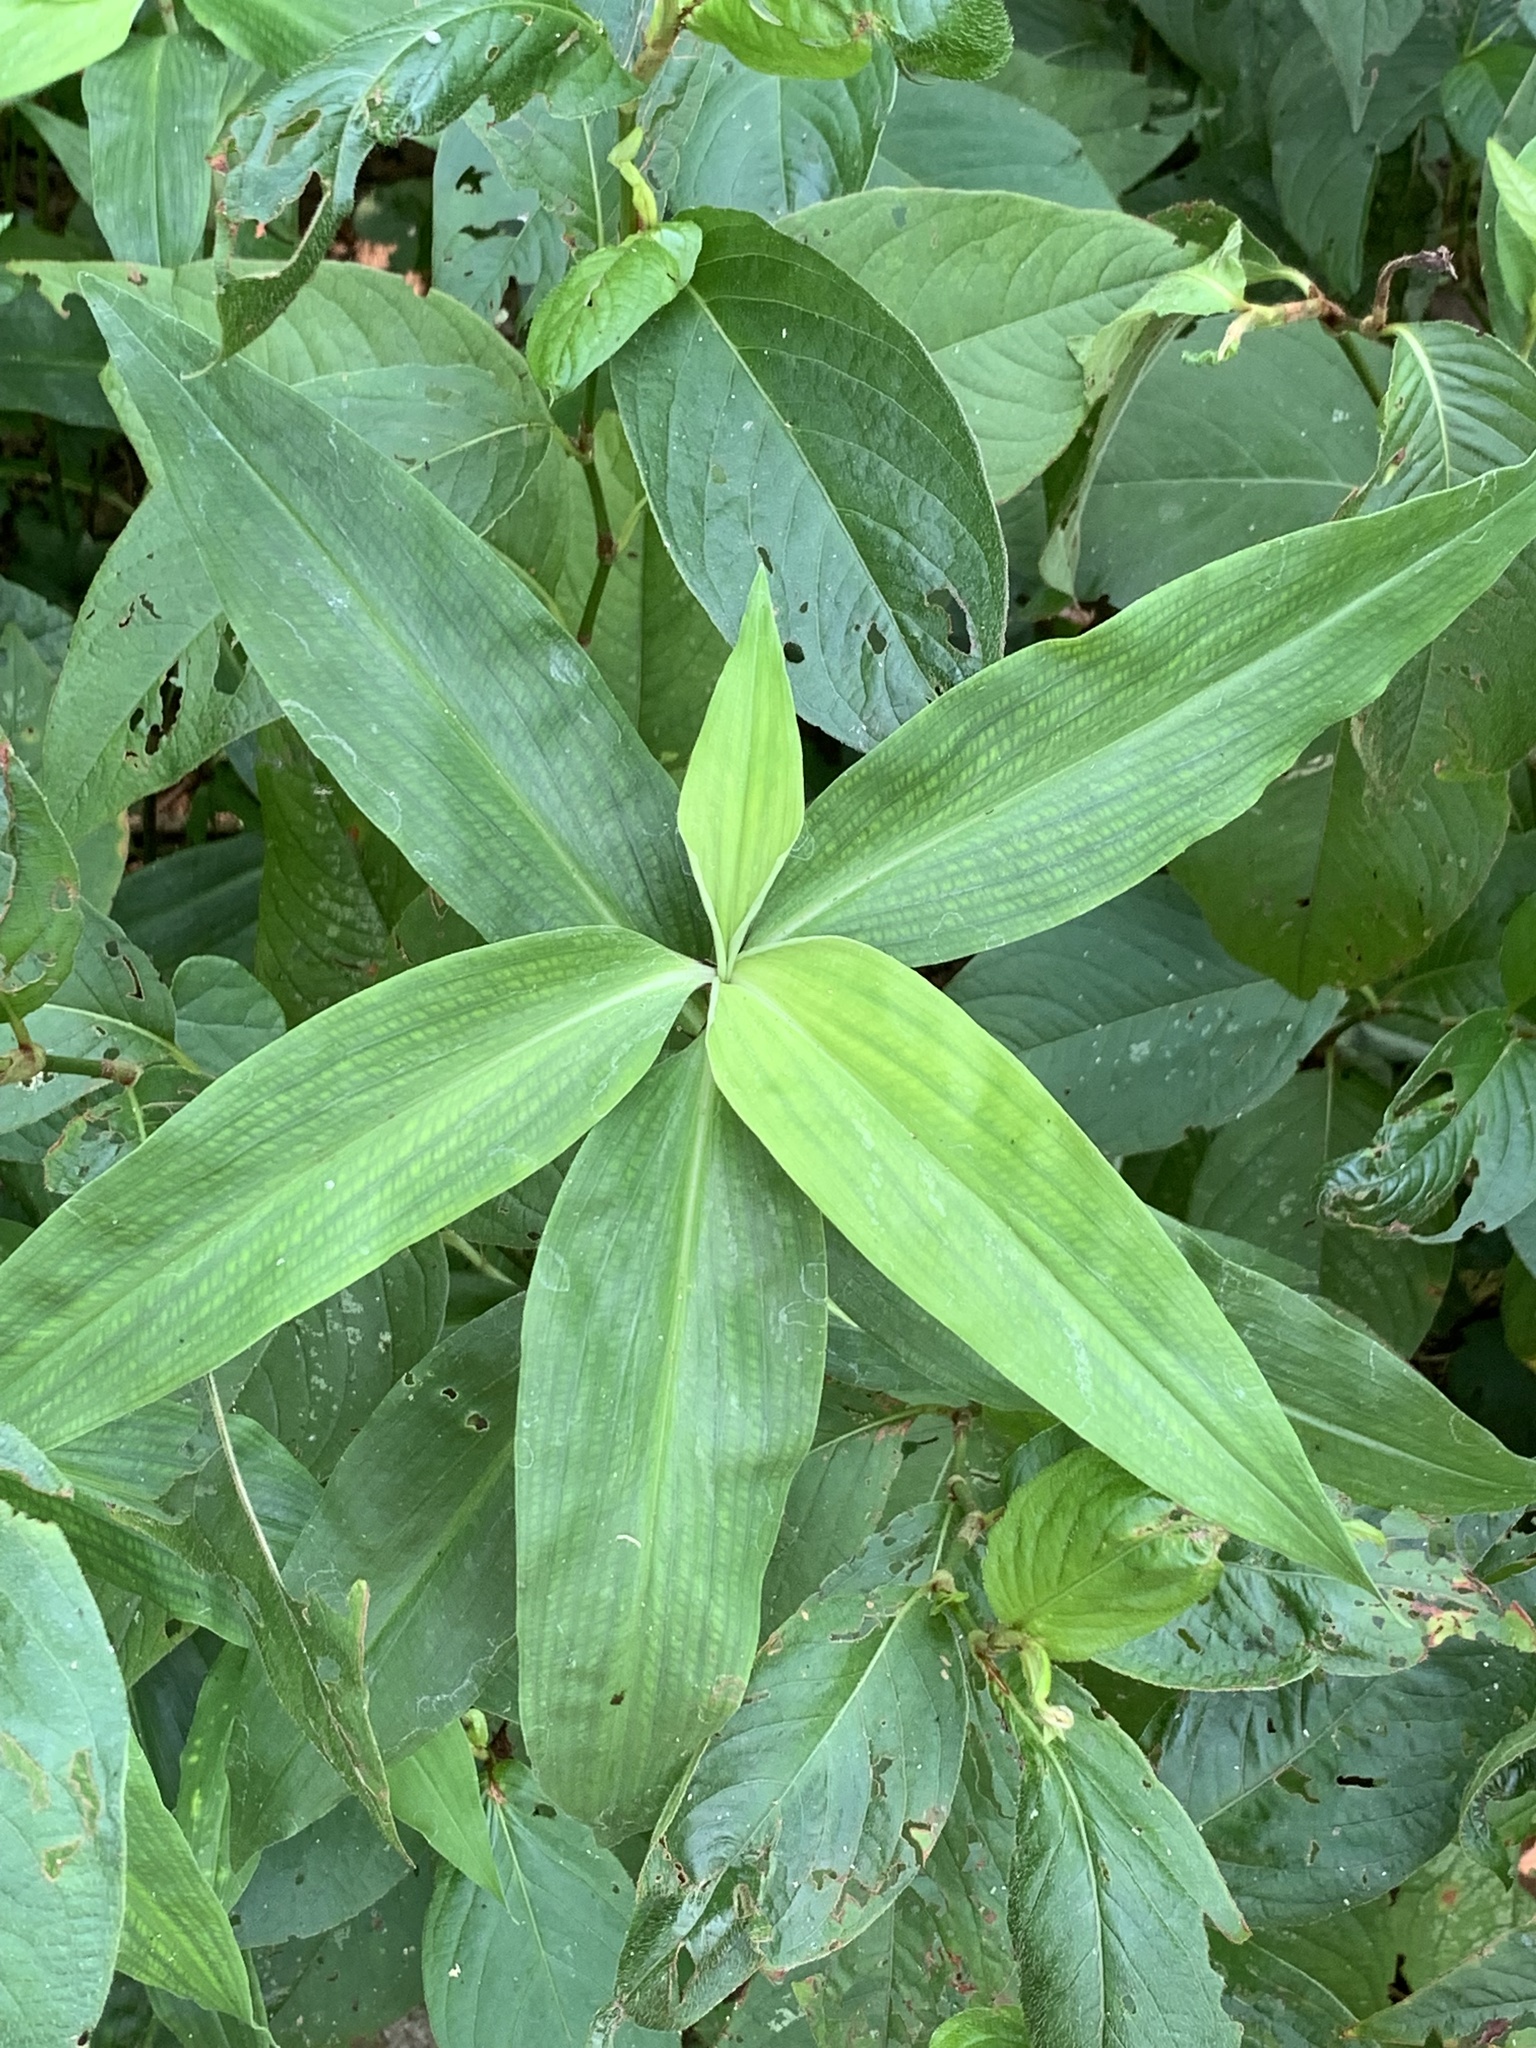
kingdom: Plantae
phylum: Tracheophyta
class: Liliopsida
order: Commelinales
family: Commelinaceae
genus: Commelina
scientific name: Commelina virginica
